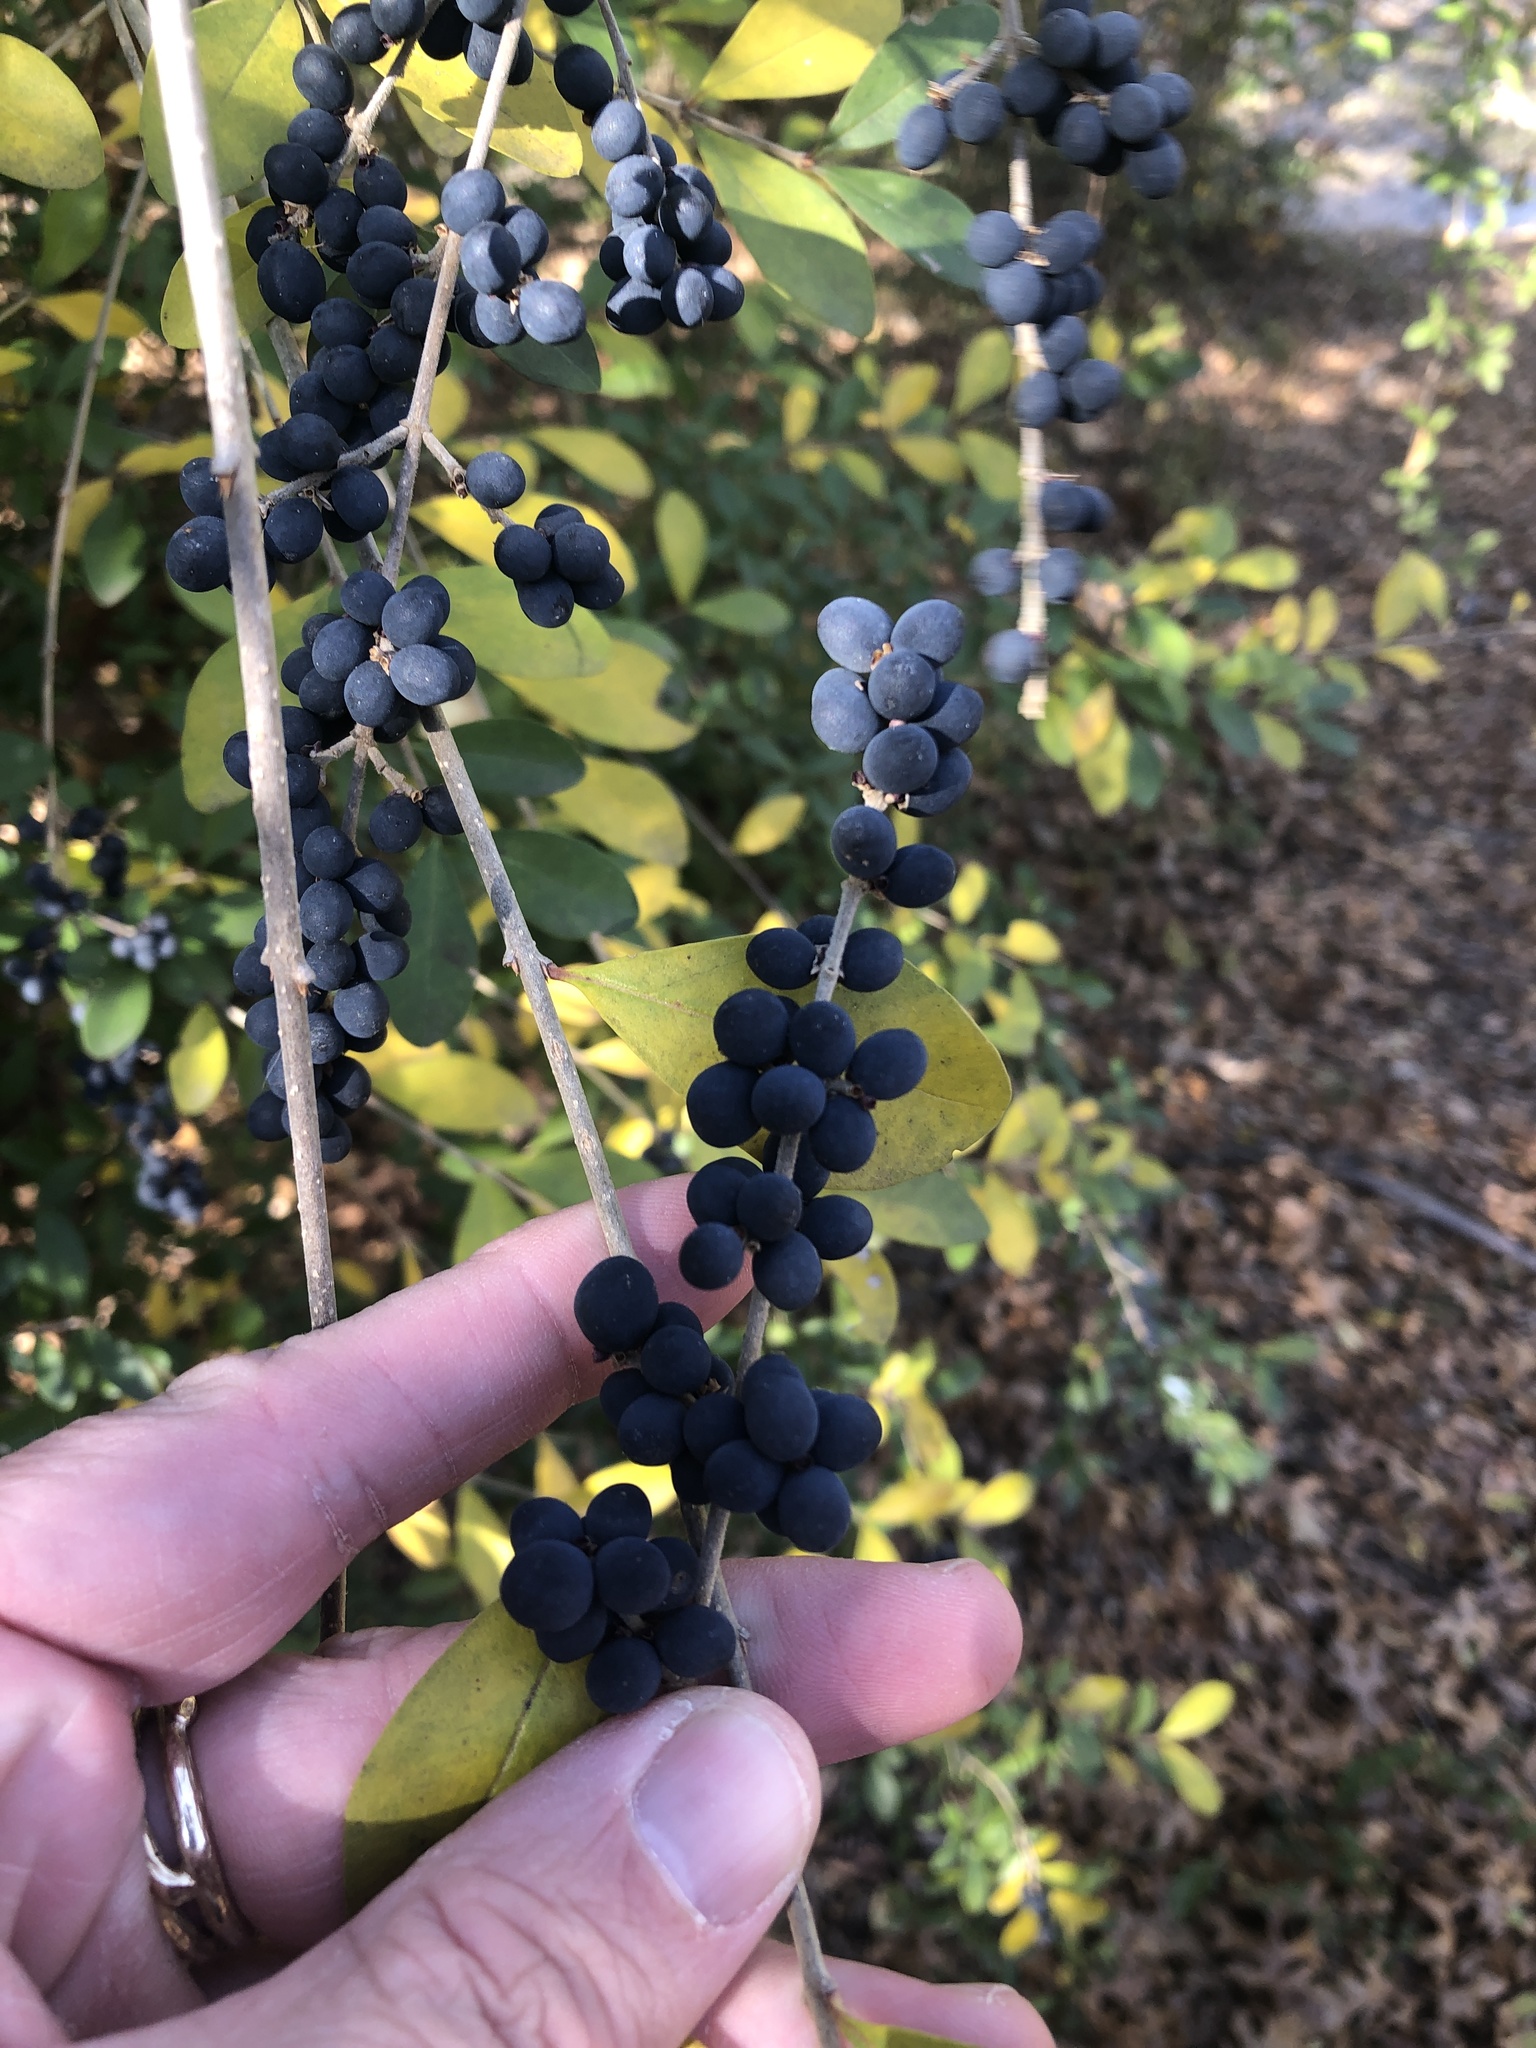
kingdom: Plantae
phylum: Tracheophyta
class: Magnoliopsida
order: Lamiales
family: Oleaceae
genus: Ligustrum
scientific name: Ligustrum quihoui
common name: Waxyleaf privet
